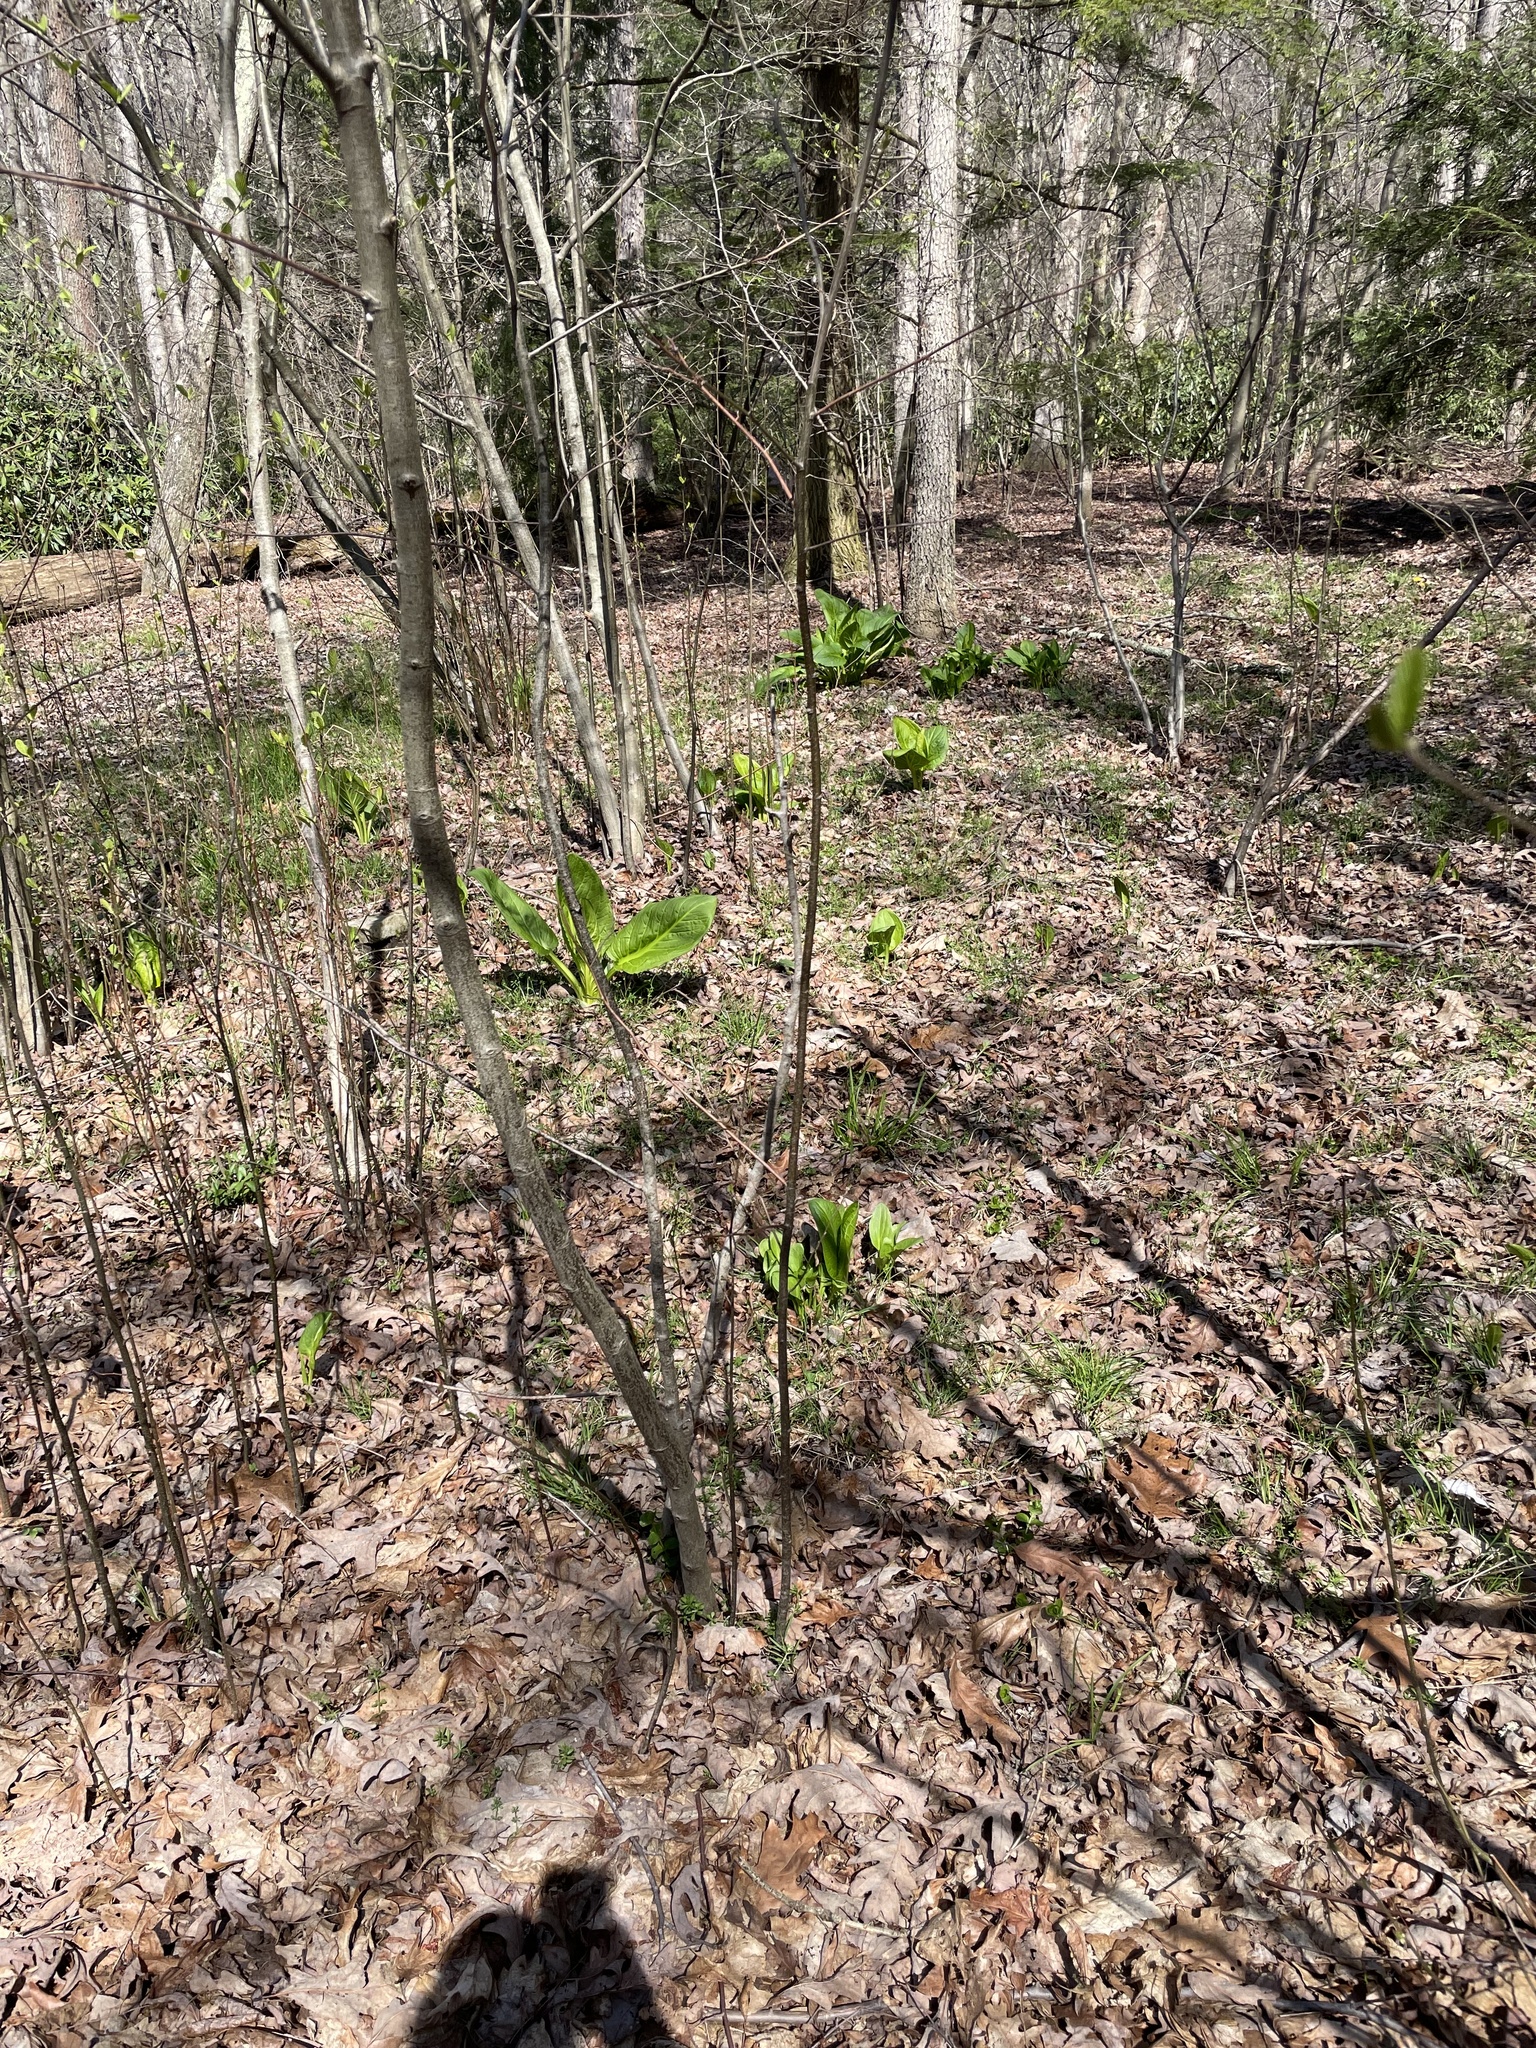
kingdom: Plantae
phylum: Tracheophyta
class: Liliopsida
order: Alismatales
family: Araceae
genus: Symplocarpus
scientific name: Symplocarpus foetidus
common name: Eastern skunk cabbage
